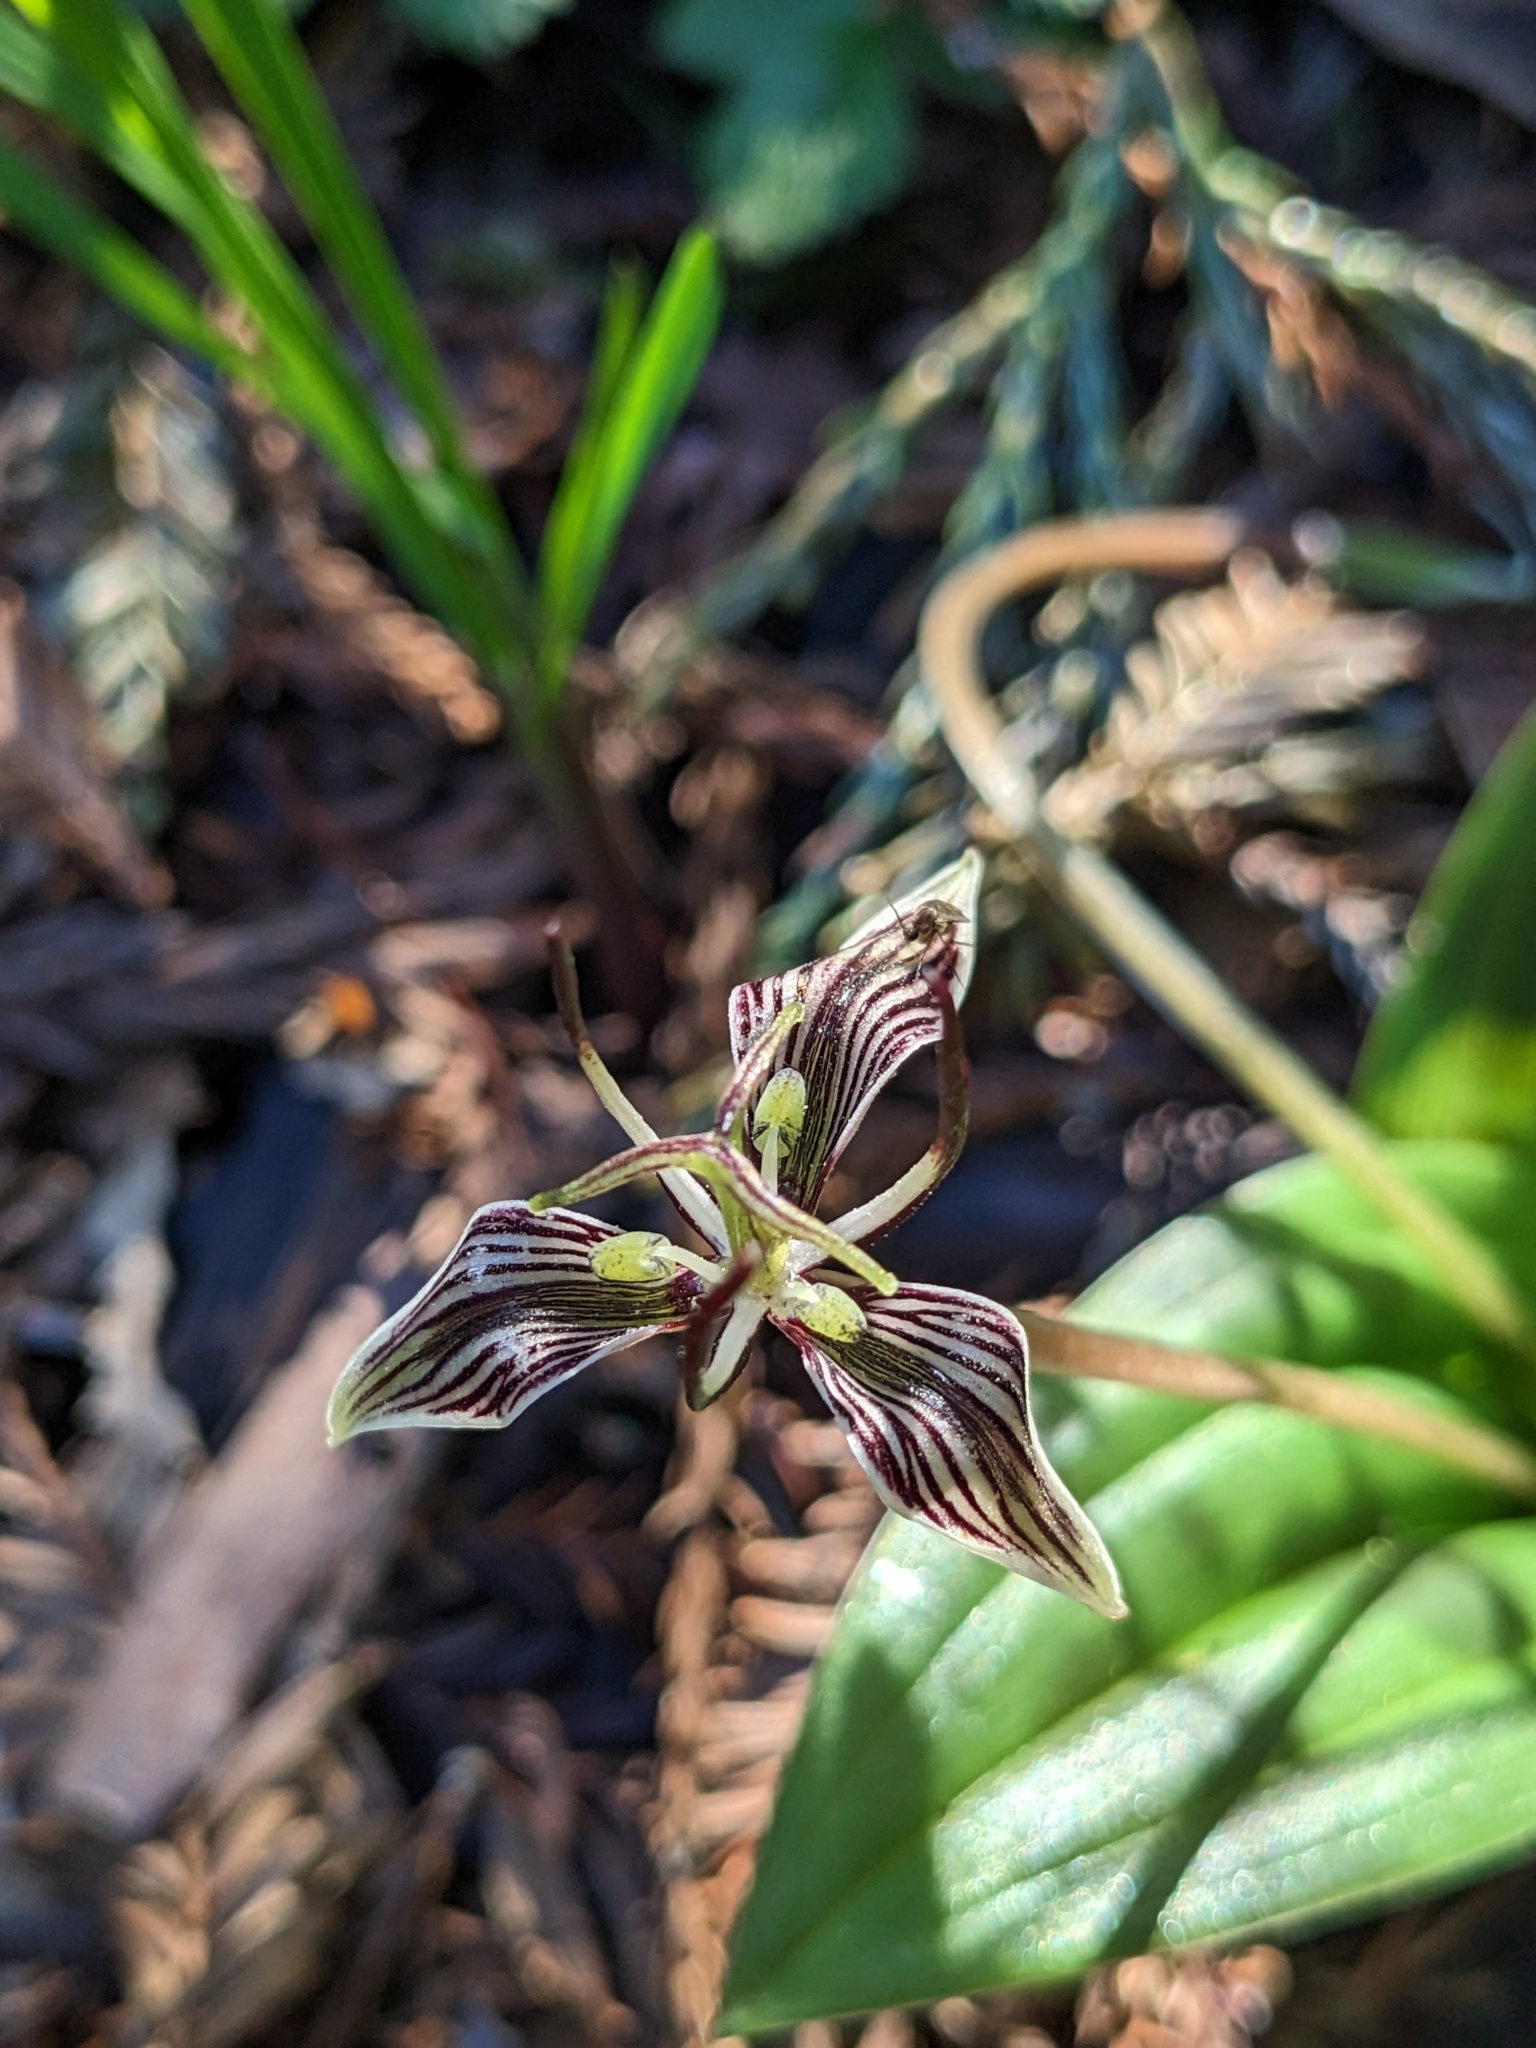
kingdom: Plantae
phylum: Tracheophyta
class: Liliopsida
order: Liliales
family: Liliaceae
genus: Scoliopus
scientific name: Scoliopus bigelovii
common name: Foetid adder's-tongue
